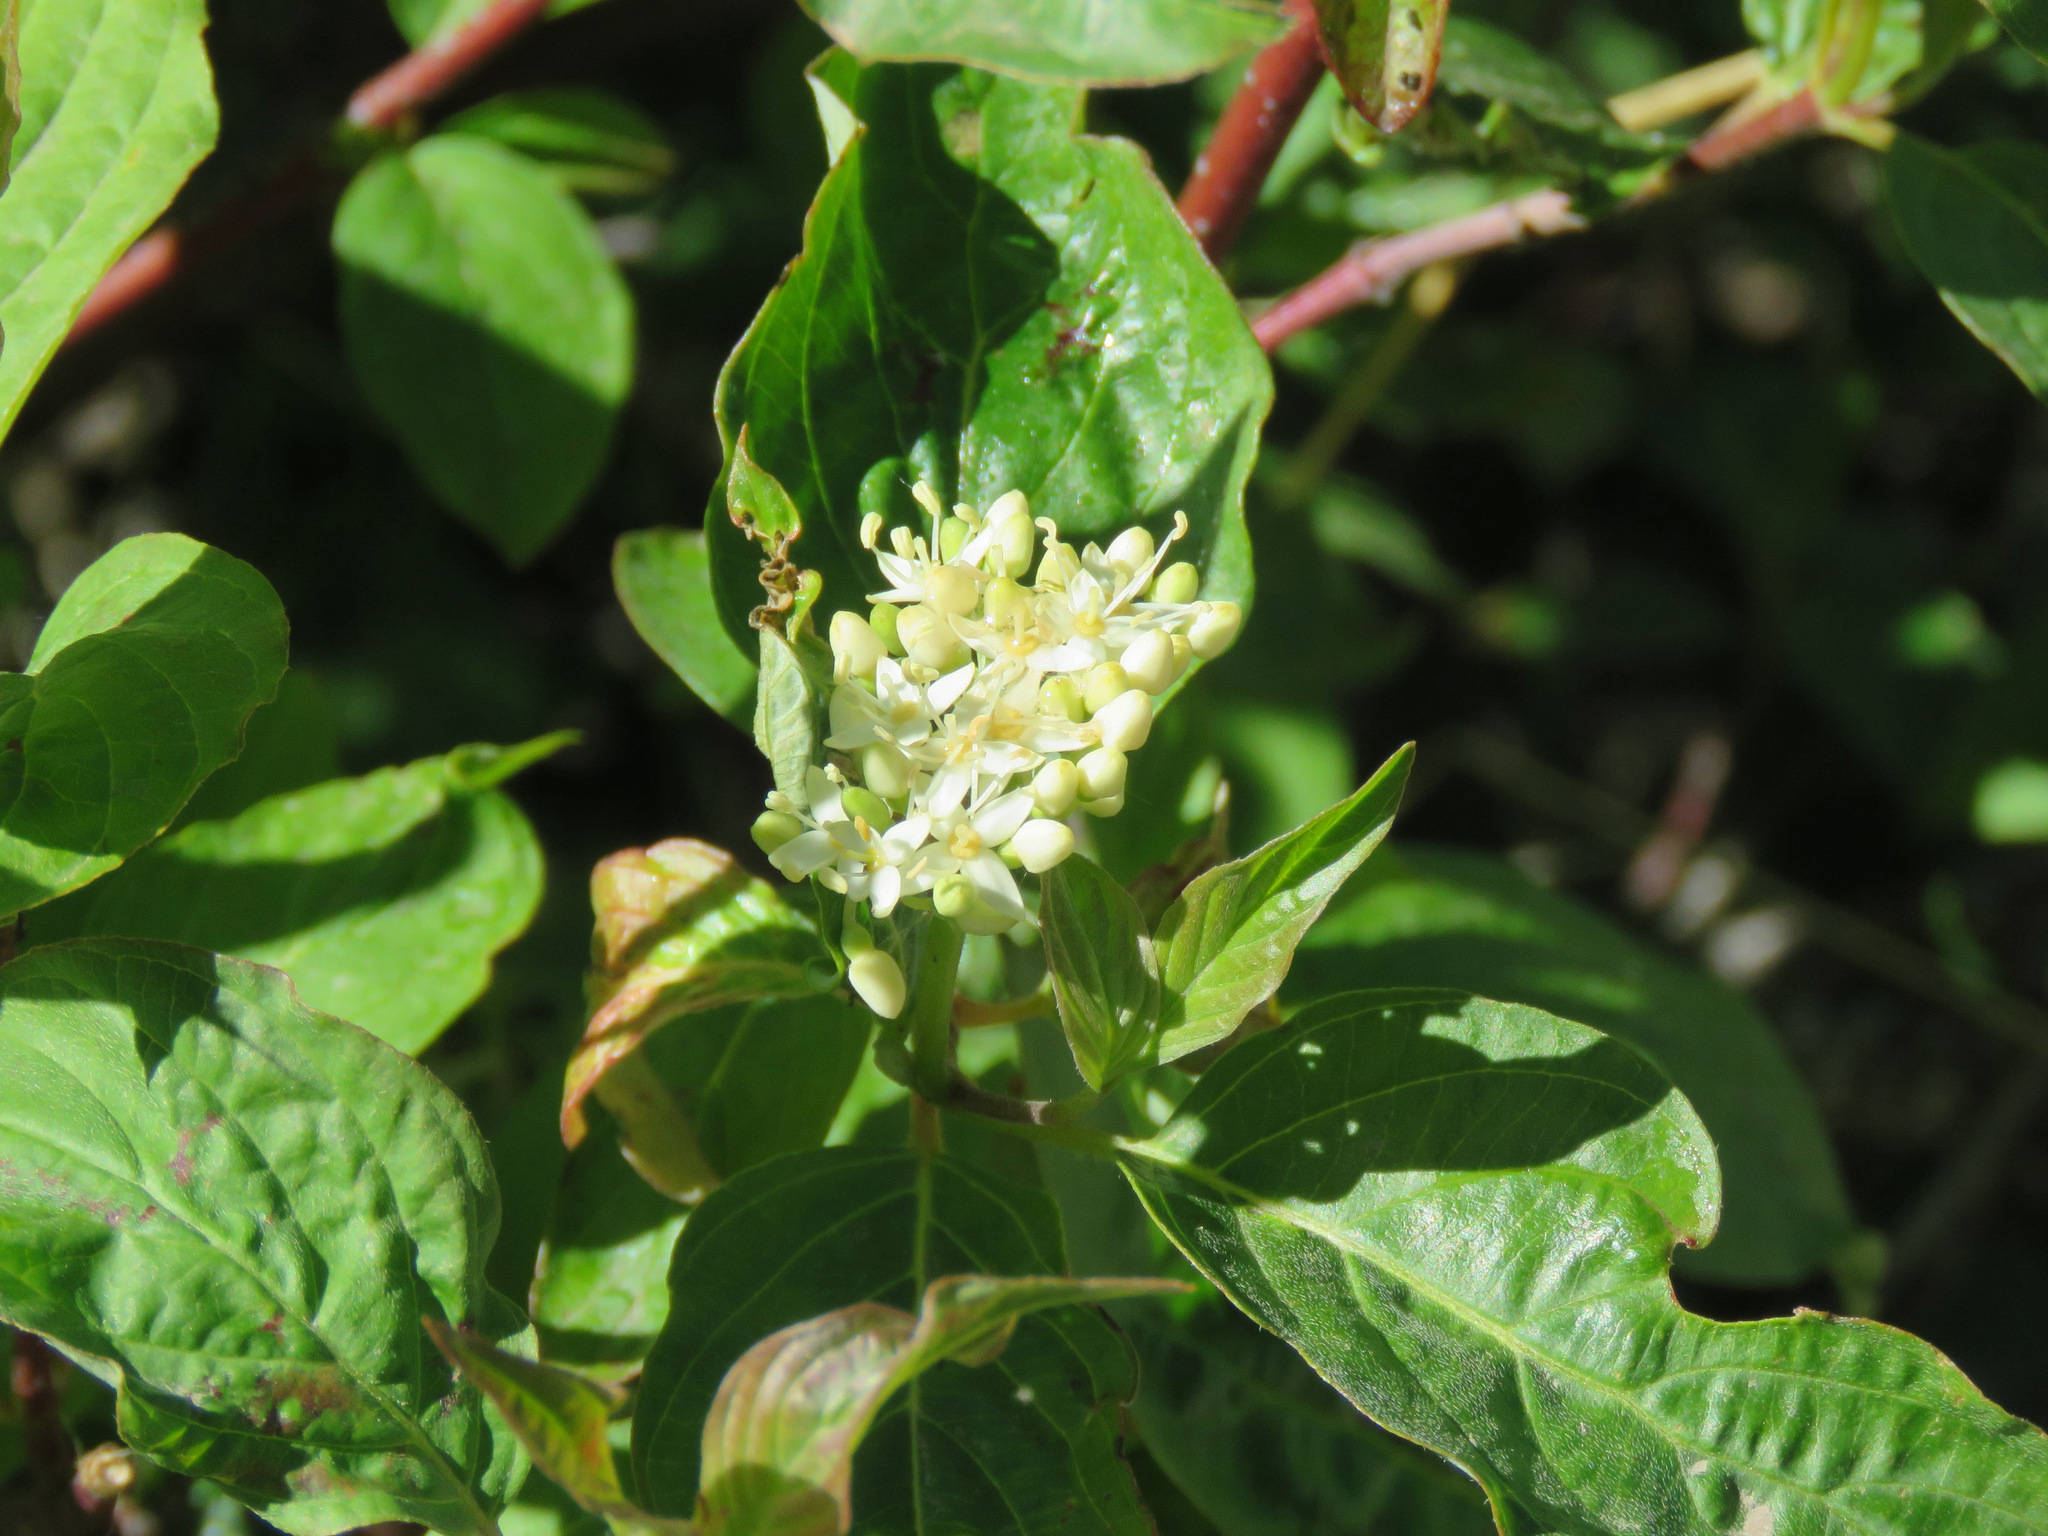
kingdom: Plantae
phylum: Tracheophyta
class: Magnoliopsida
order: Cornales
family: Cornaceae
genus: Cornus
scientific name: Cornus sericea
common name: Red-osier dogwood
